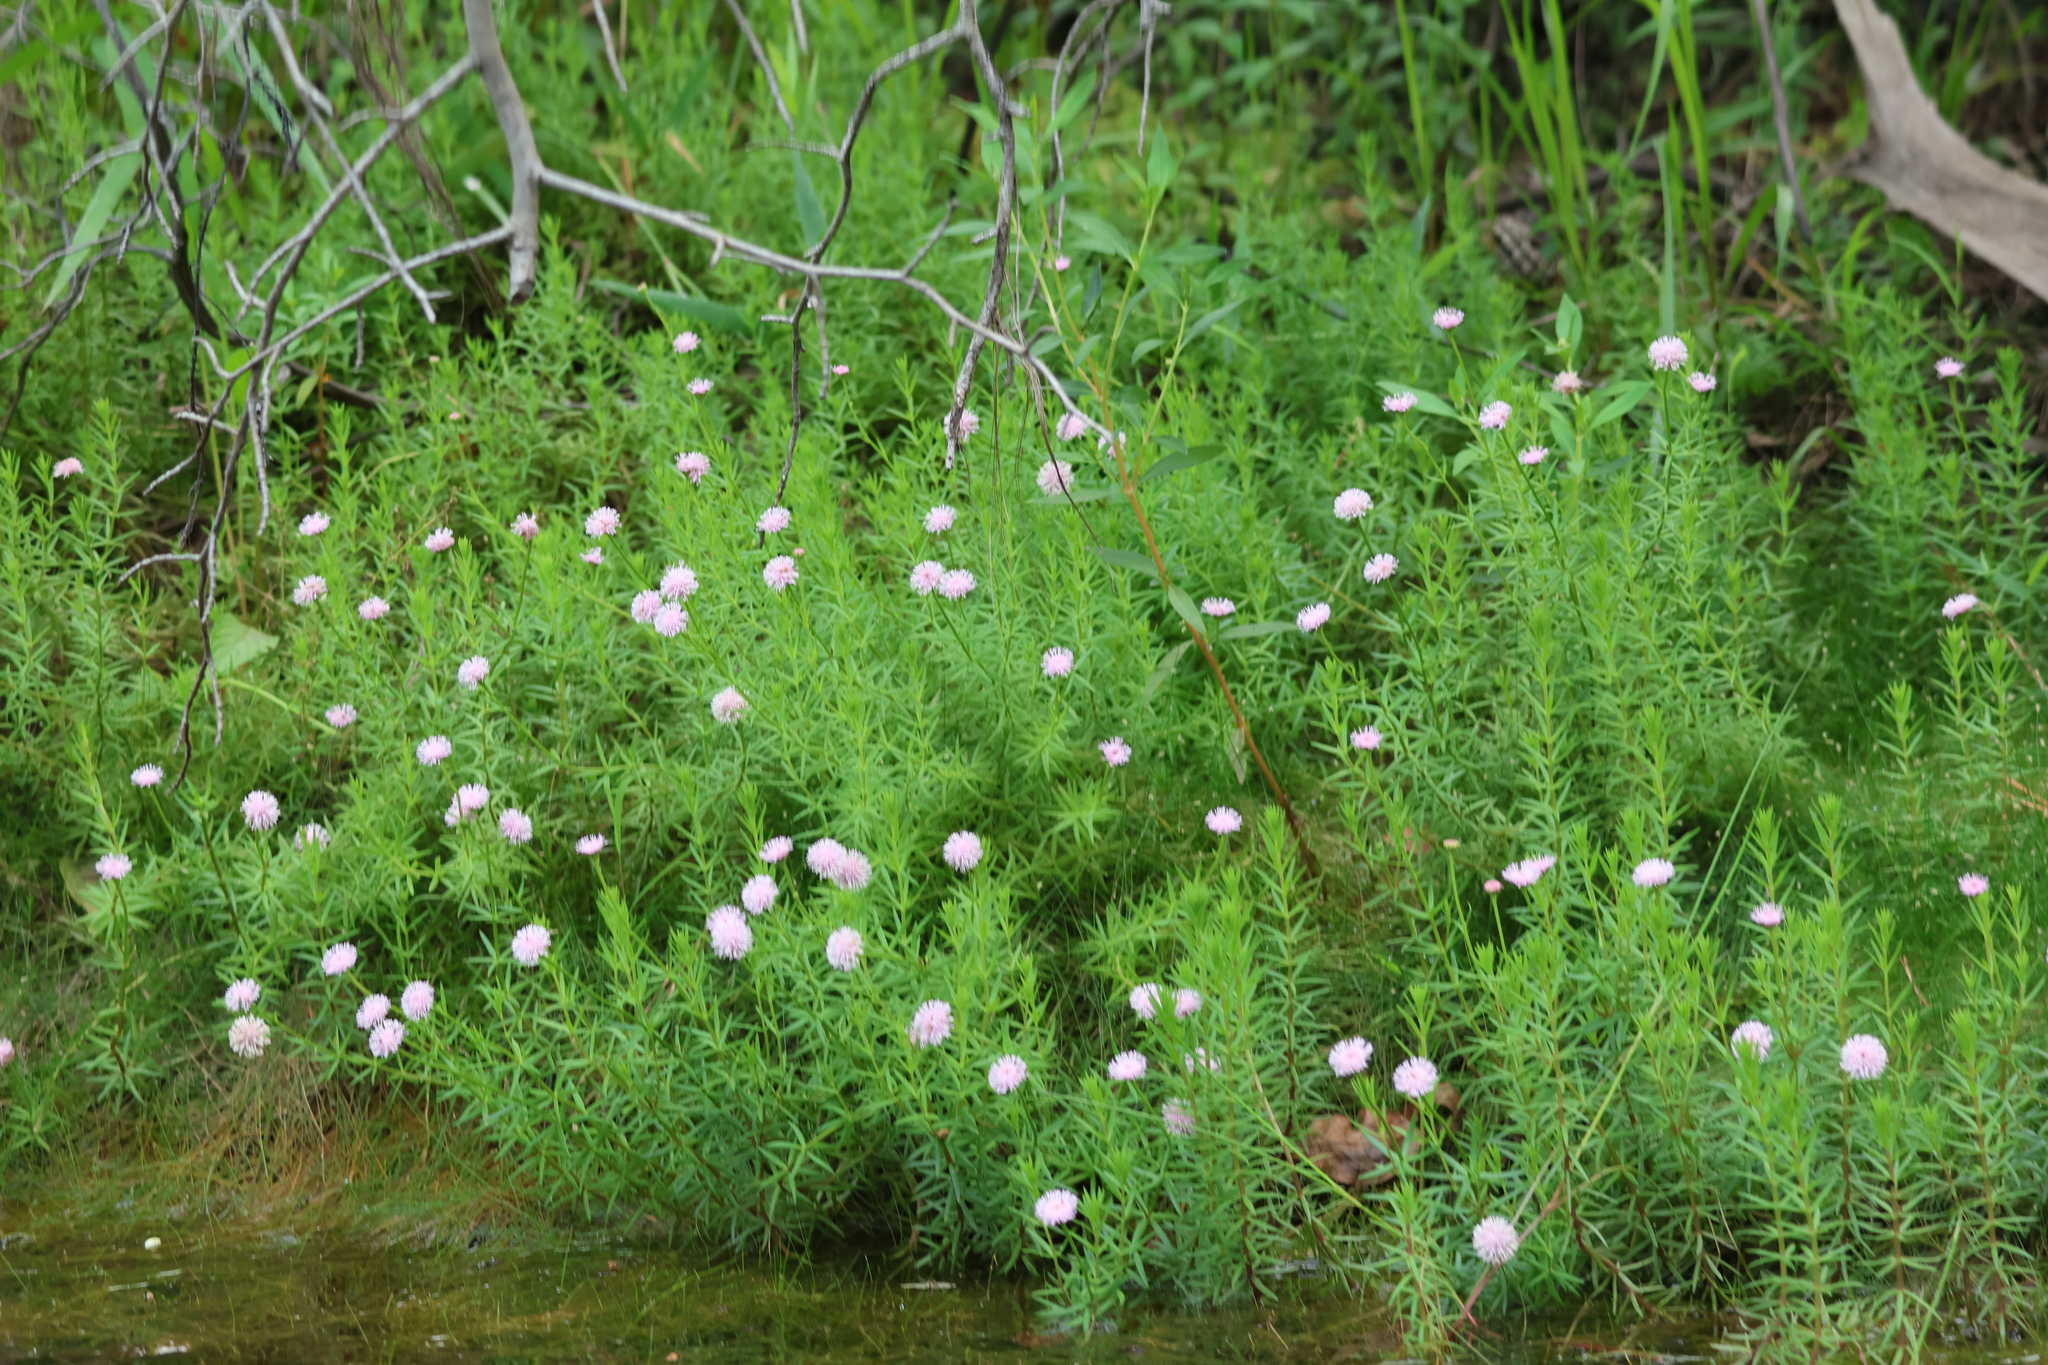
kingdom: Plantae
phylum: Tracheophyta
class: Magnoliopsida
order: Asterales
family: Asteraceae
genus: Sclerolepis
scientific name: Sclerolepis uniflora
